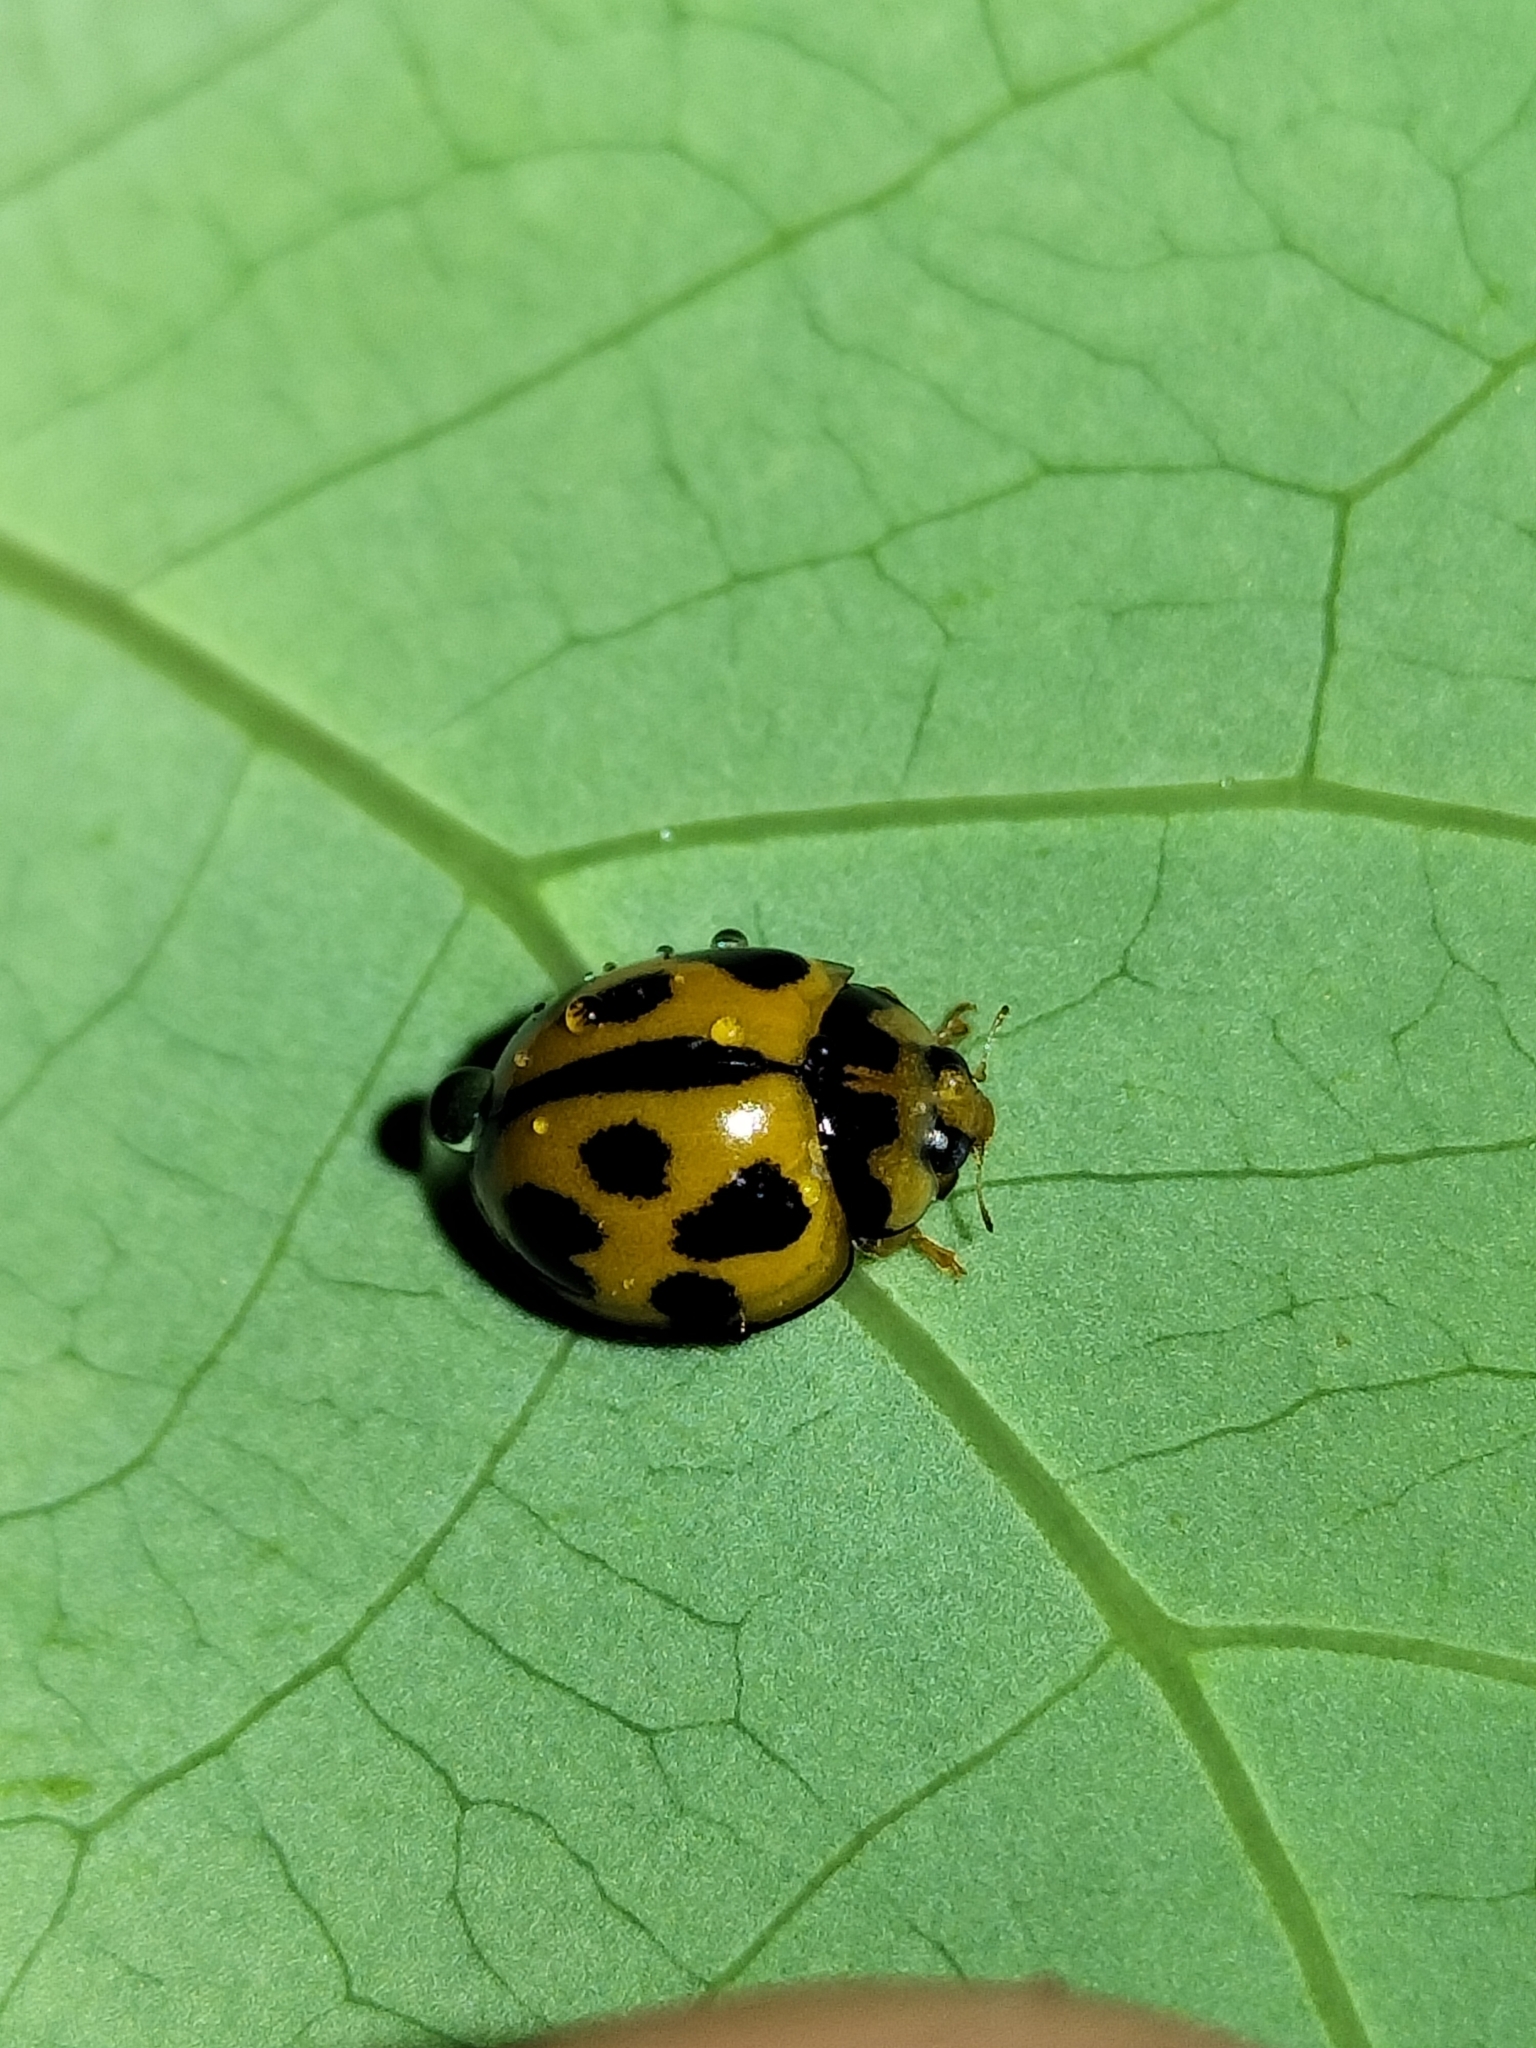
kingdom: Animalia
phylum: Arthropoda
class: Insecta
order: Coleoptera
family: Coccinellidae
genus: Coelophora
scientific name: Coelophora inaequalis
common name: Common australian lady beetle
